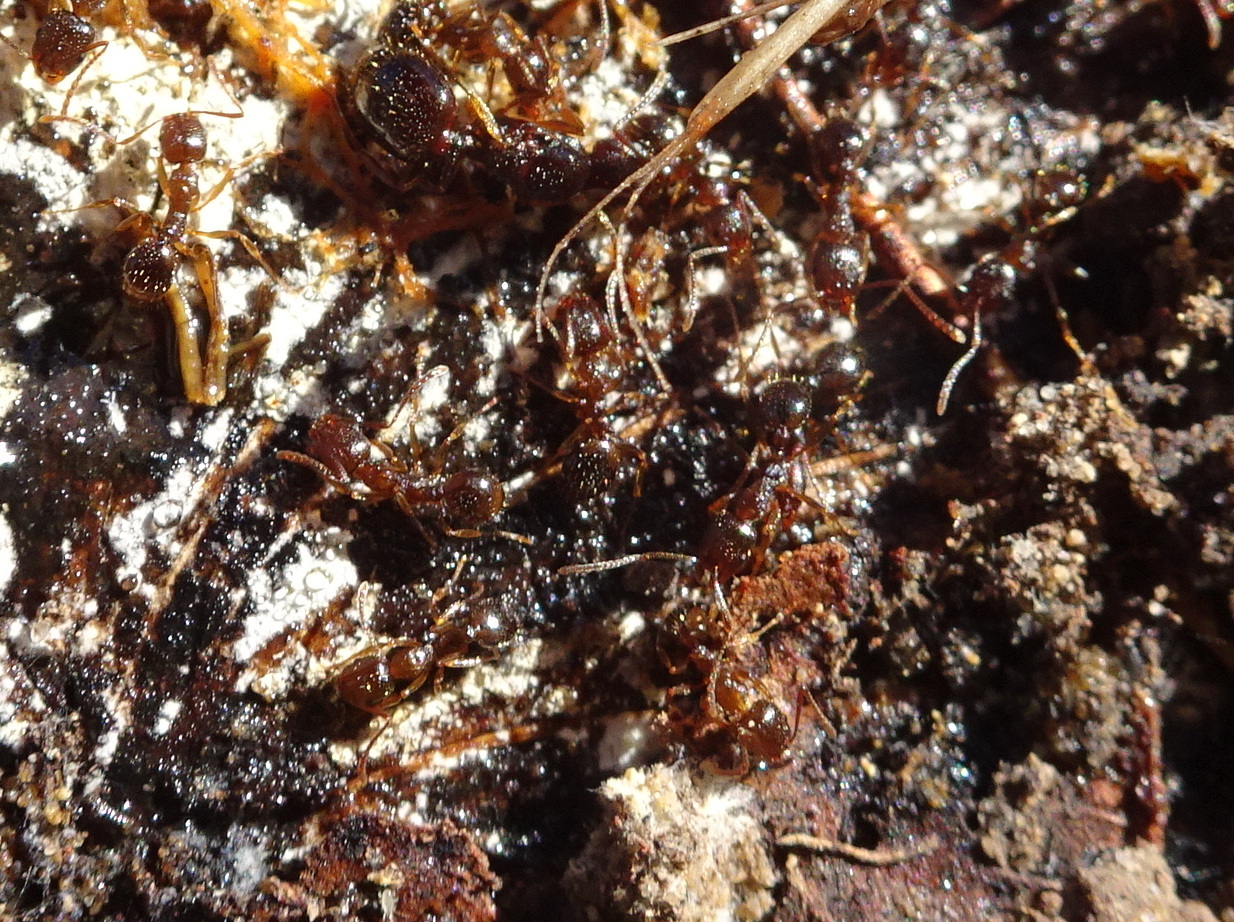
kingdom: Animalia
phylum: Arthropoda
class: Insecta
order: Hymenoptera
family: Formicidae
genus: Aphaenogaster
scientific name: Aphaenogaster occidentalis
